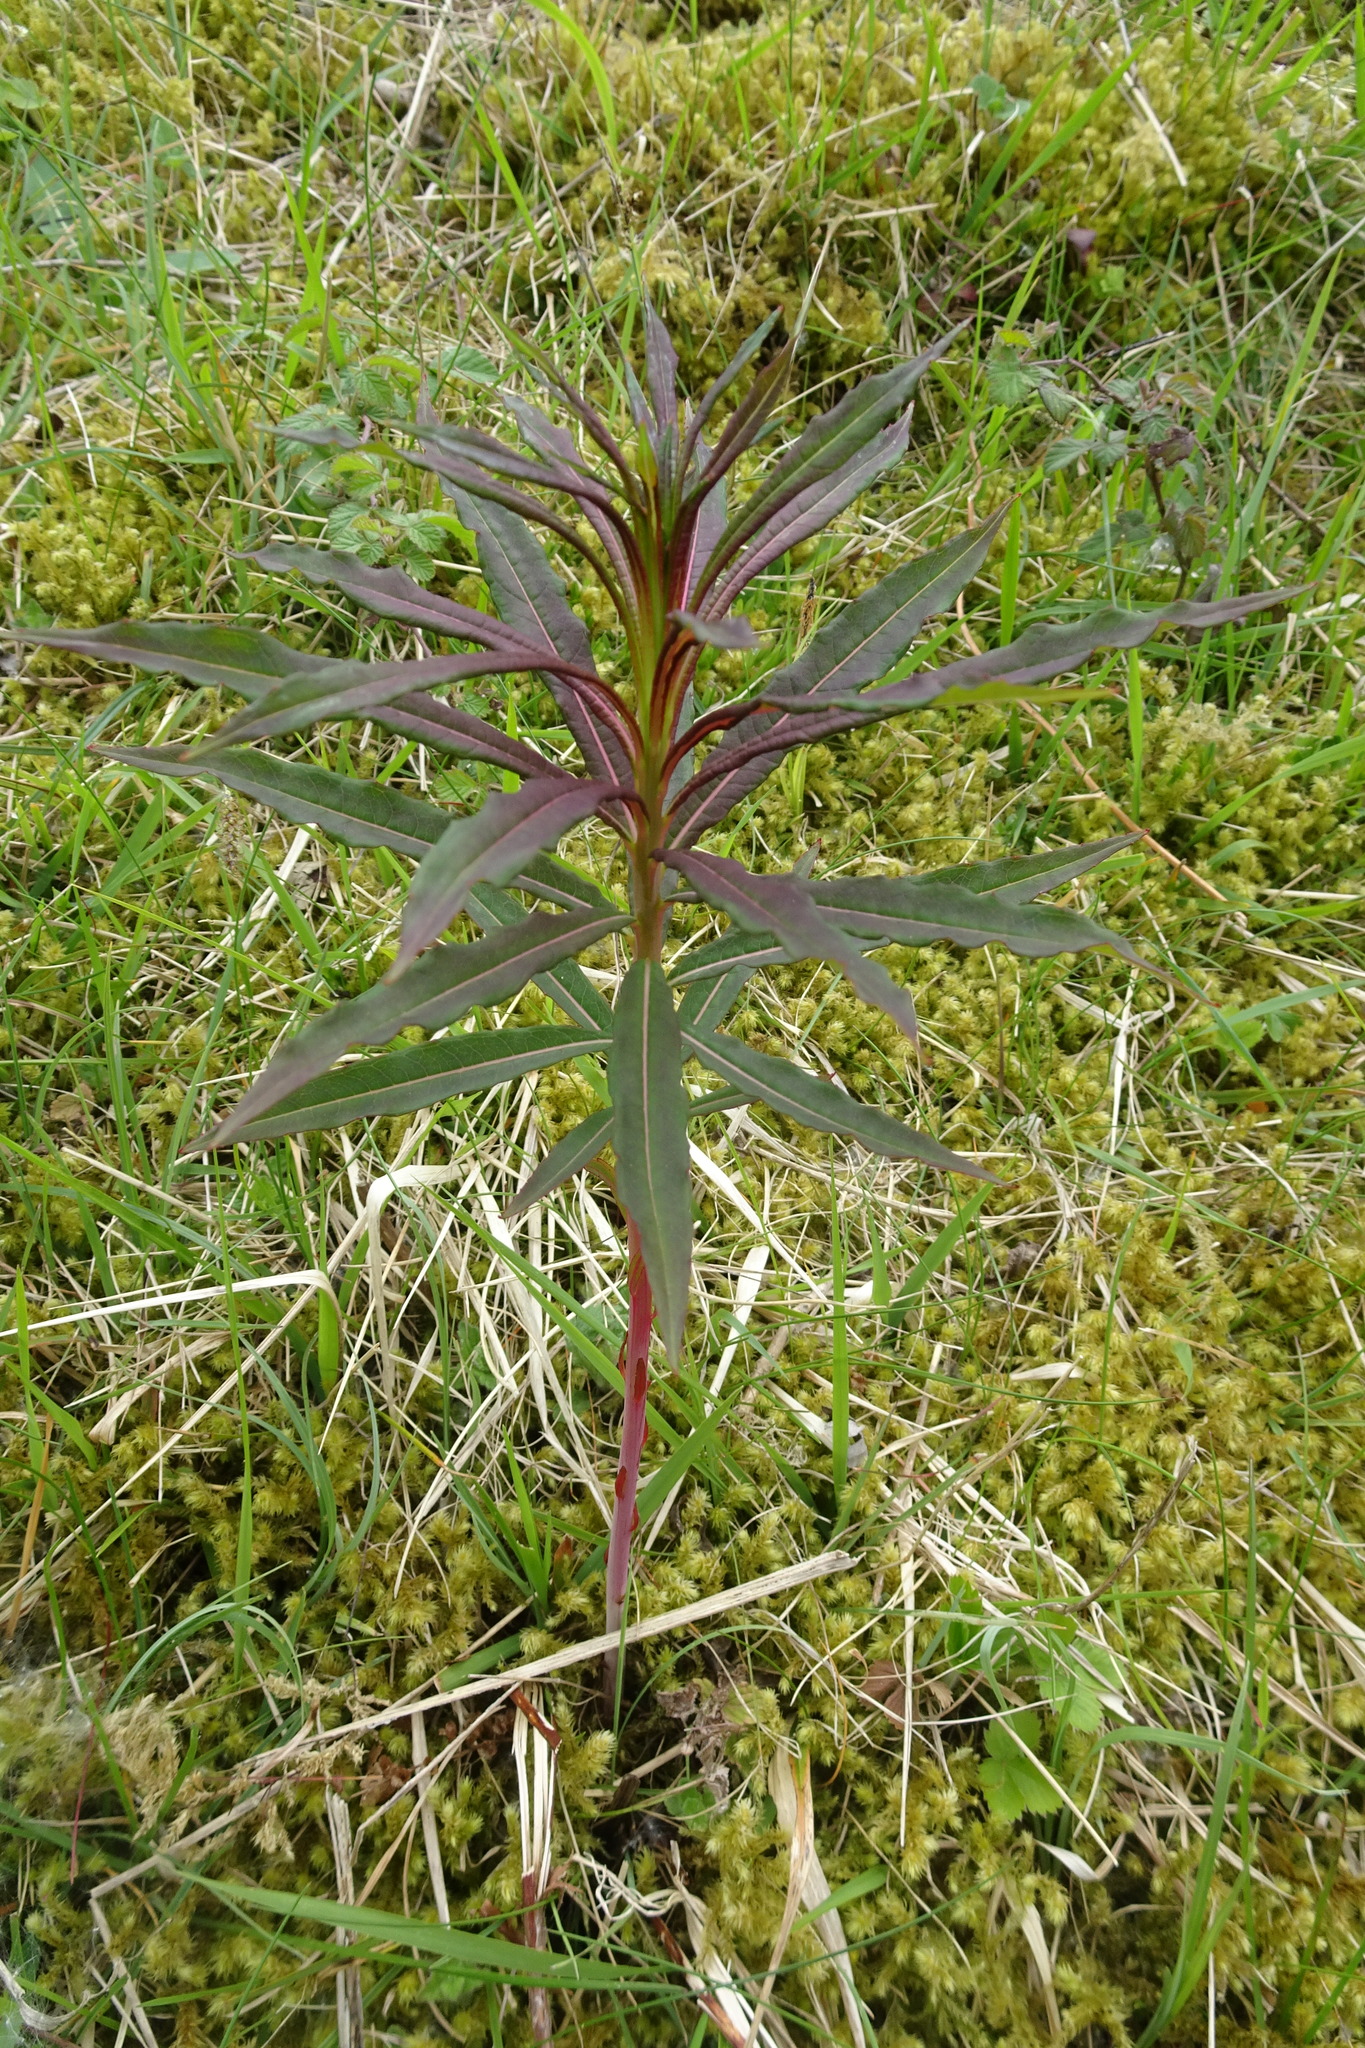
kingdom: Plantae
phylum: Tracheophyta
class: Magnoliopsida
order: Myrtales
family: Onagraceae
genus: Chamaenerion
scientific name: Chamaenerion angustifolium
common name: Fireweed
